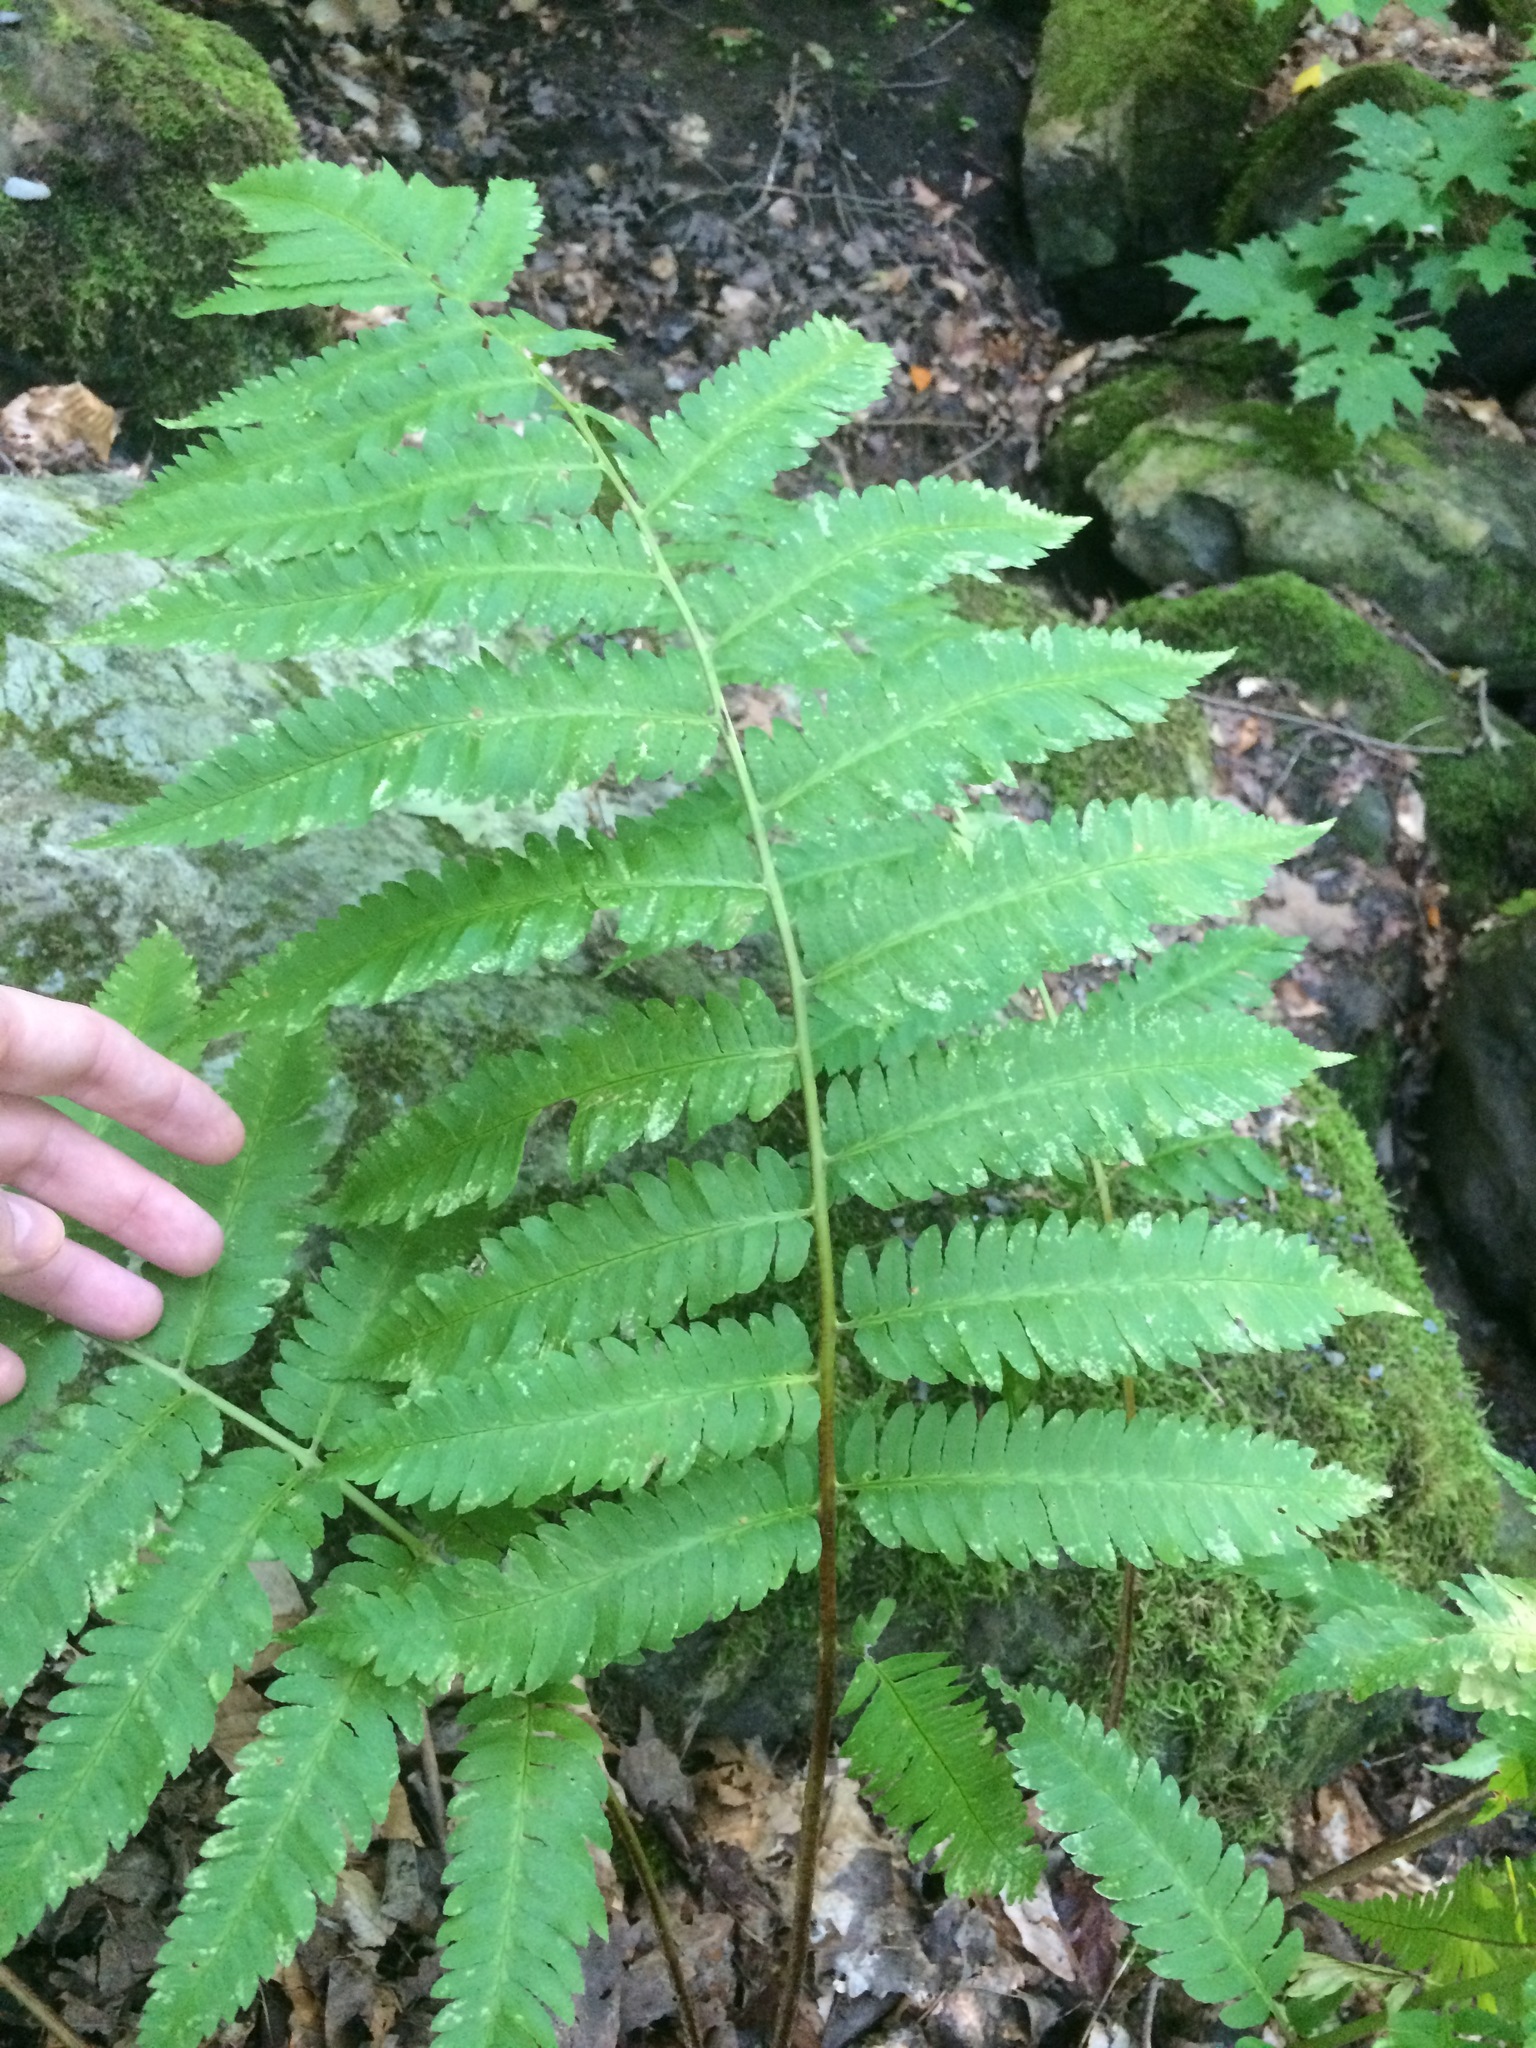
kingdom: Plantae
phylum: Tracheophyta
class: Polypodiopsida
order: Polypodiales
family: Dryopteridaceae
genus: Dryopteris
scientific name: Dryopteris goldieana
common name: Goldie's fern
